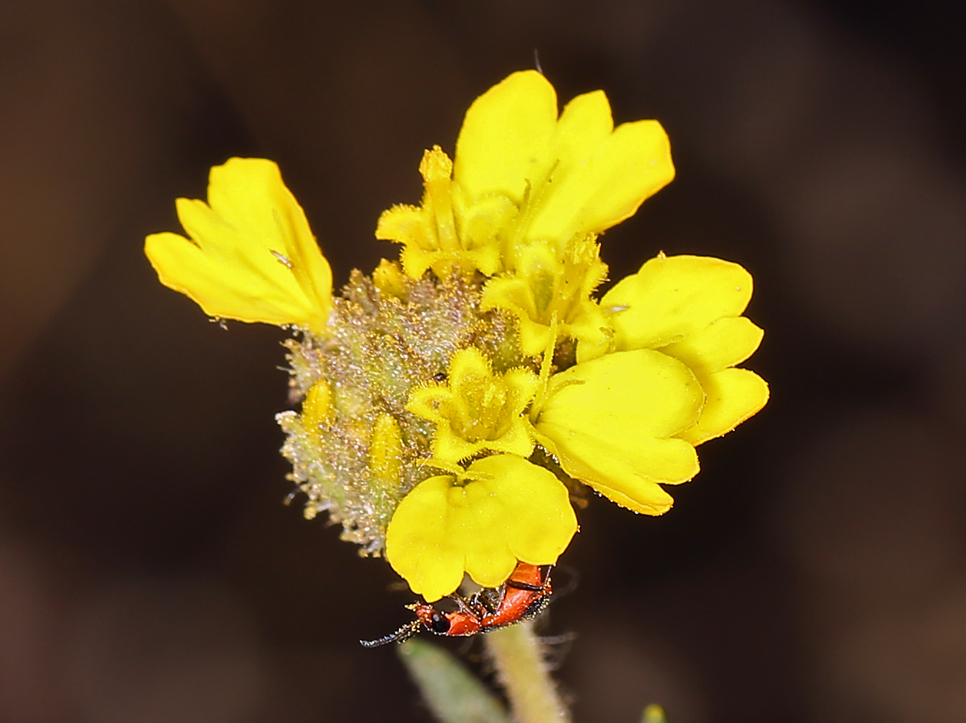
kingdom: Plantae
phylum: Tracheophyta
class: Magnoliopsida
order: Asterales
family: Asteraceae
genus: Holocarpha
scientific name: Holocarpha heermannii
